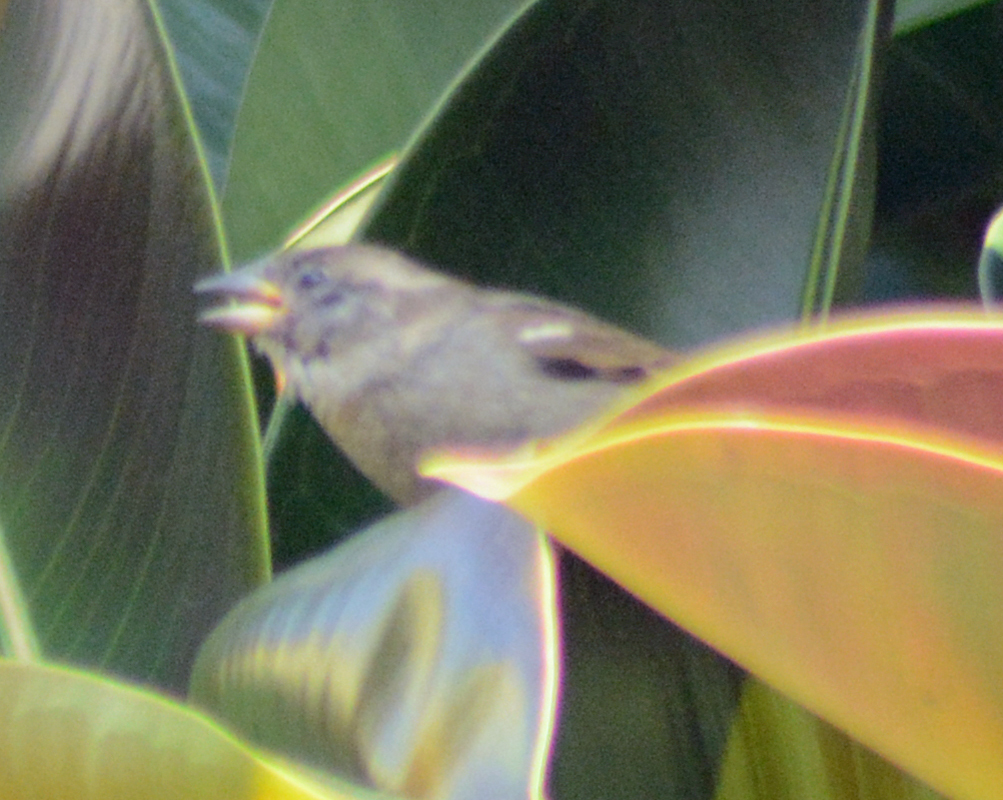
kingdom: Animalia
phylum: Chordata
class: Aves
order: Passeriformes
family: Passeridae
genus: Passer
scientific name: Passer domesticus
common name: House sparrow
